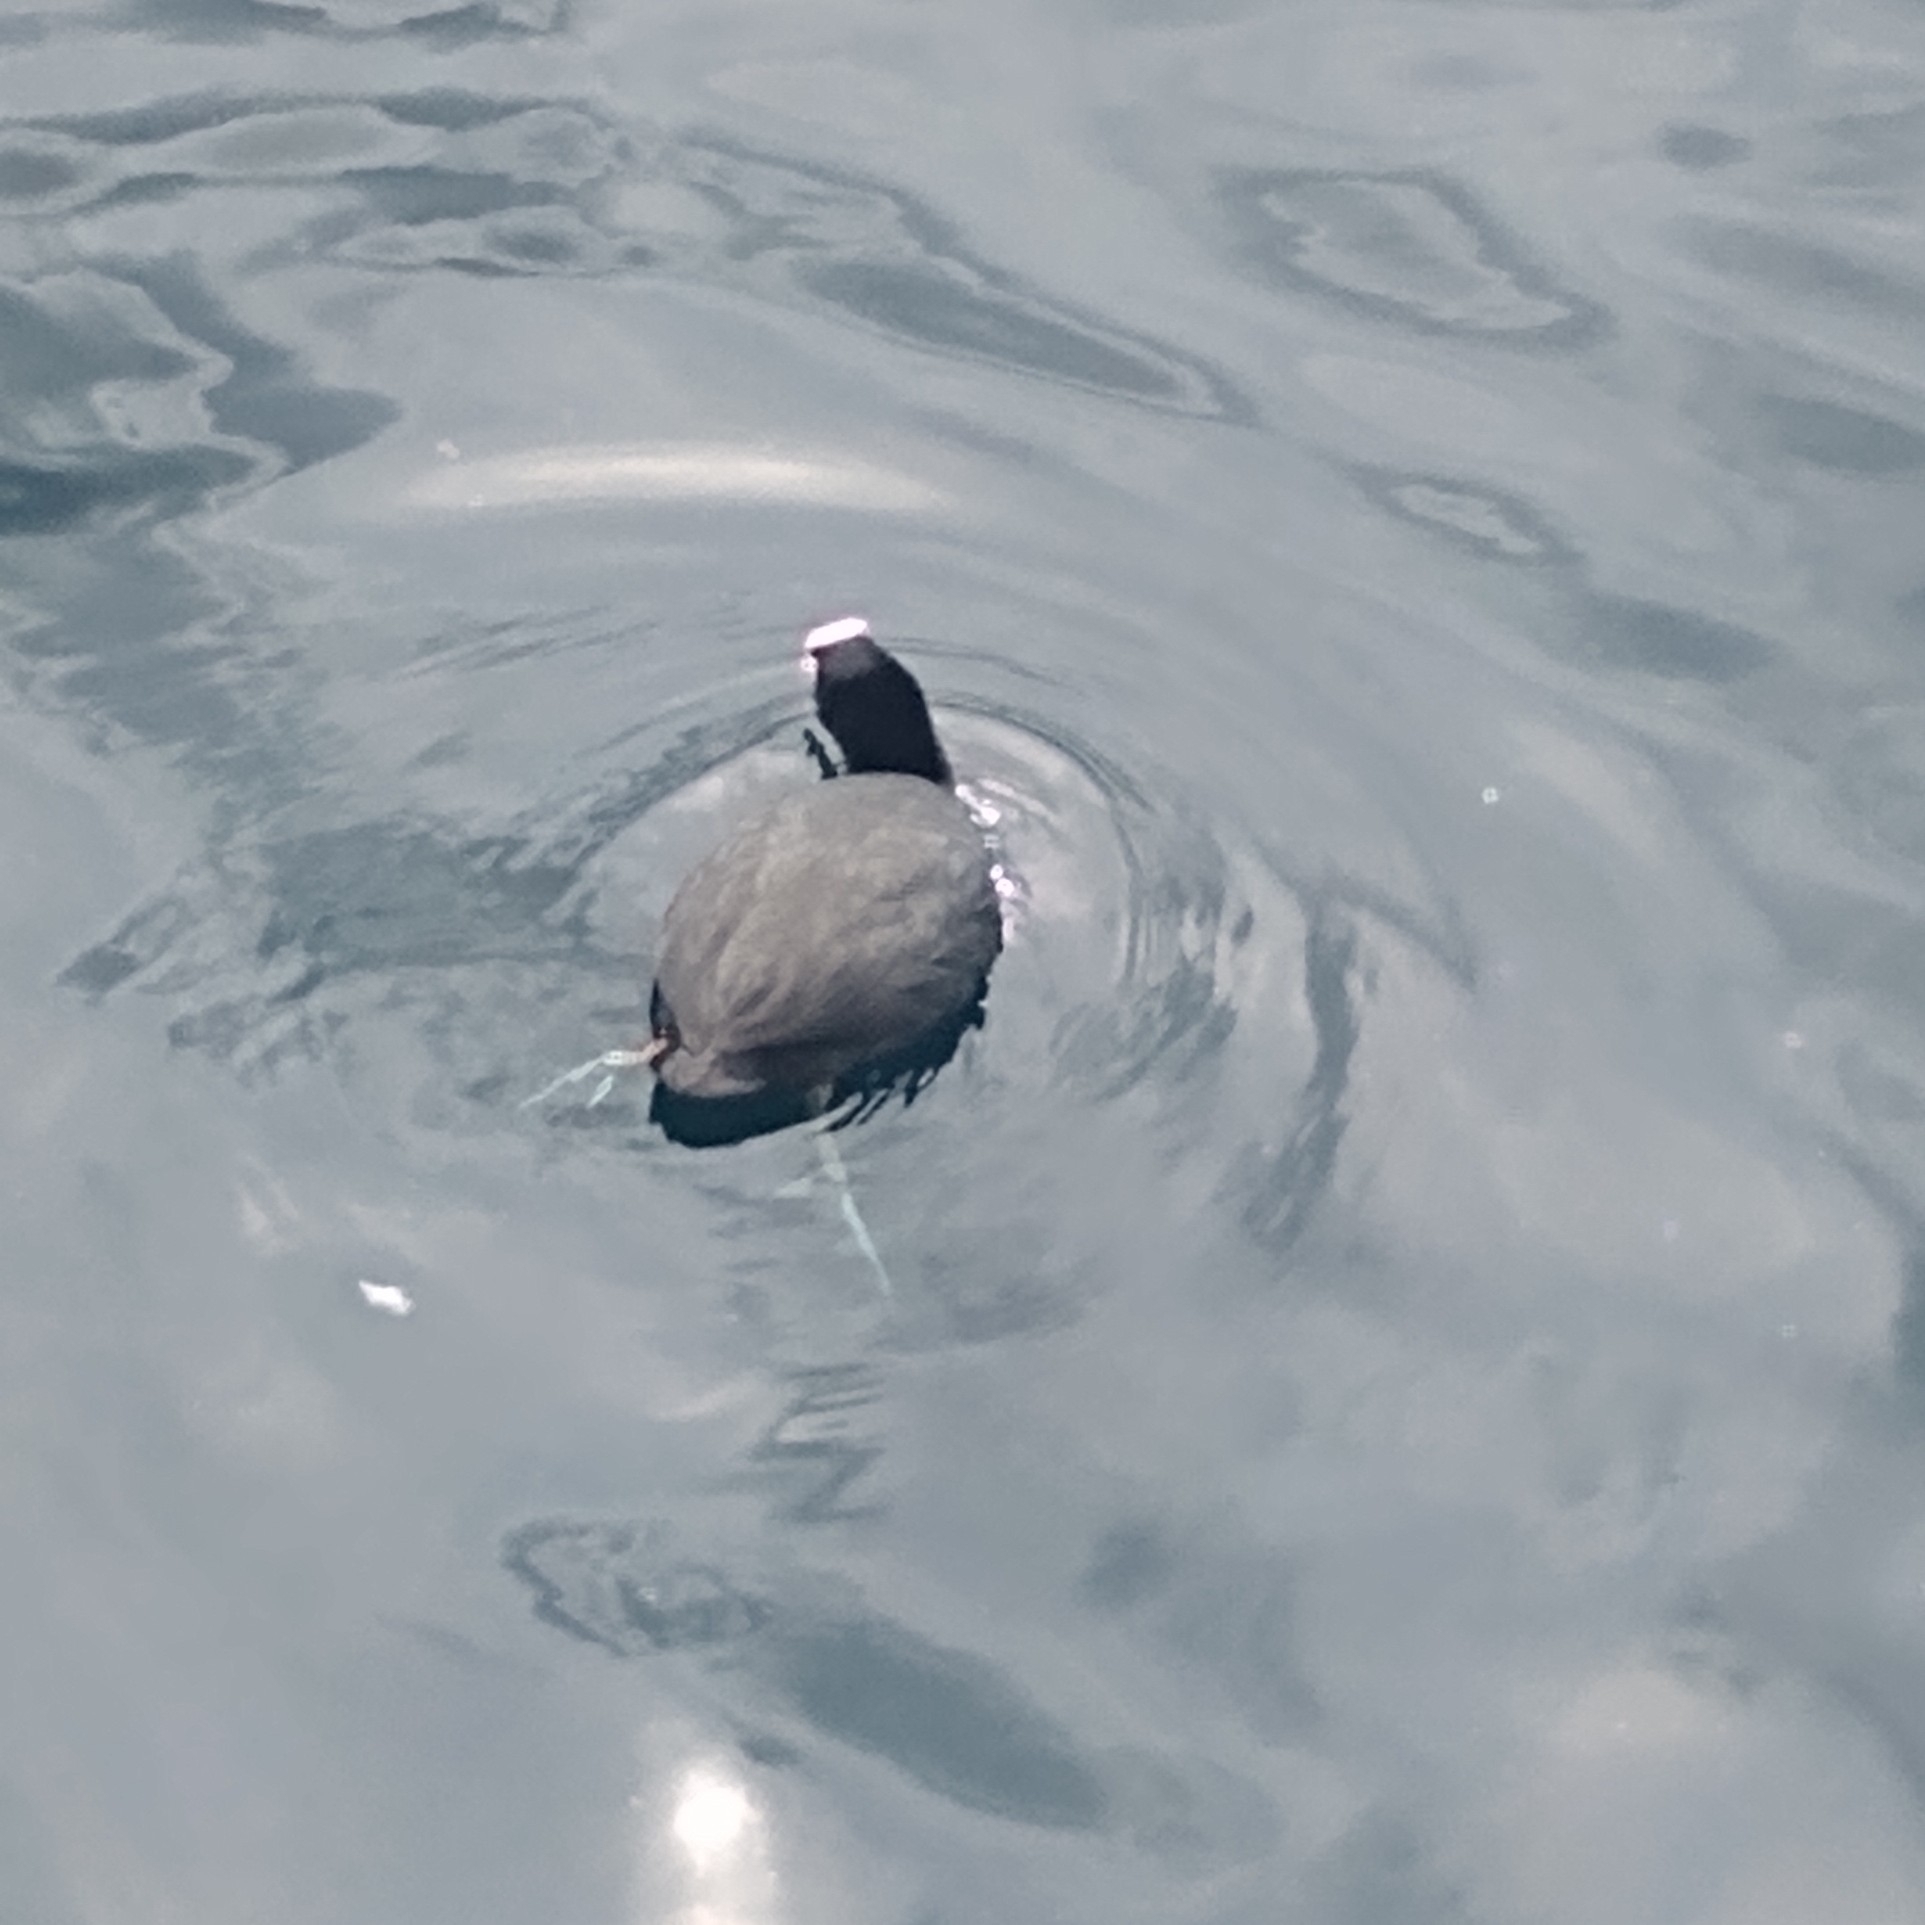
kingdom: Animalia
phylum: Chordata
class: Aves
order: Gruiformes
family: Rallidae
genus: Fulica
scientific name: Fulica atra
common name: Eurasian coot
